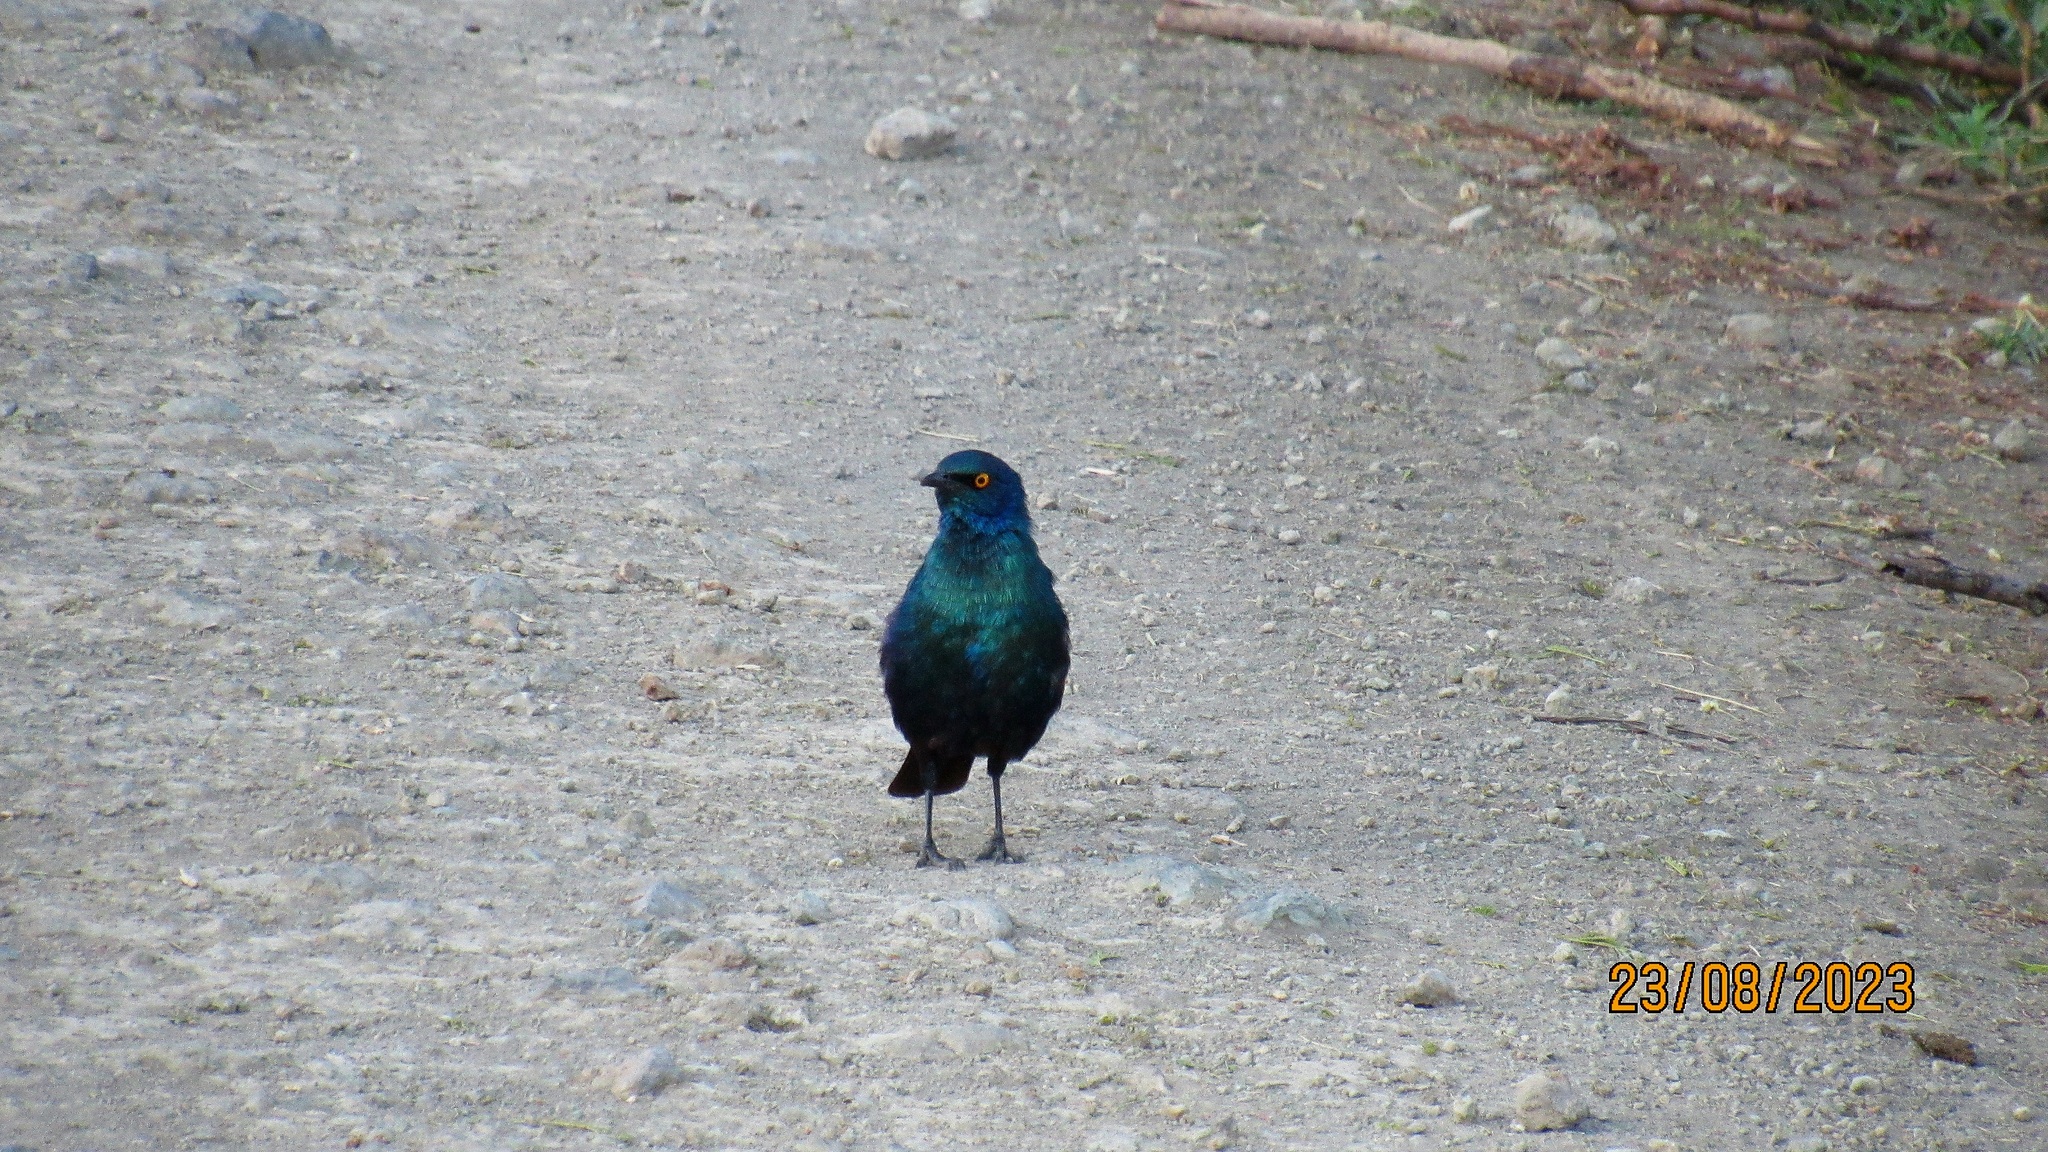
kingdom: Animalia
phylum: Chordata
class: Aves
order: Passeriformes
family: Sturnidae
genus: Lamprotornis
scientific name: Lamprotornis chalybaeus
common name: Greater blue-eared starling
